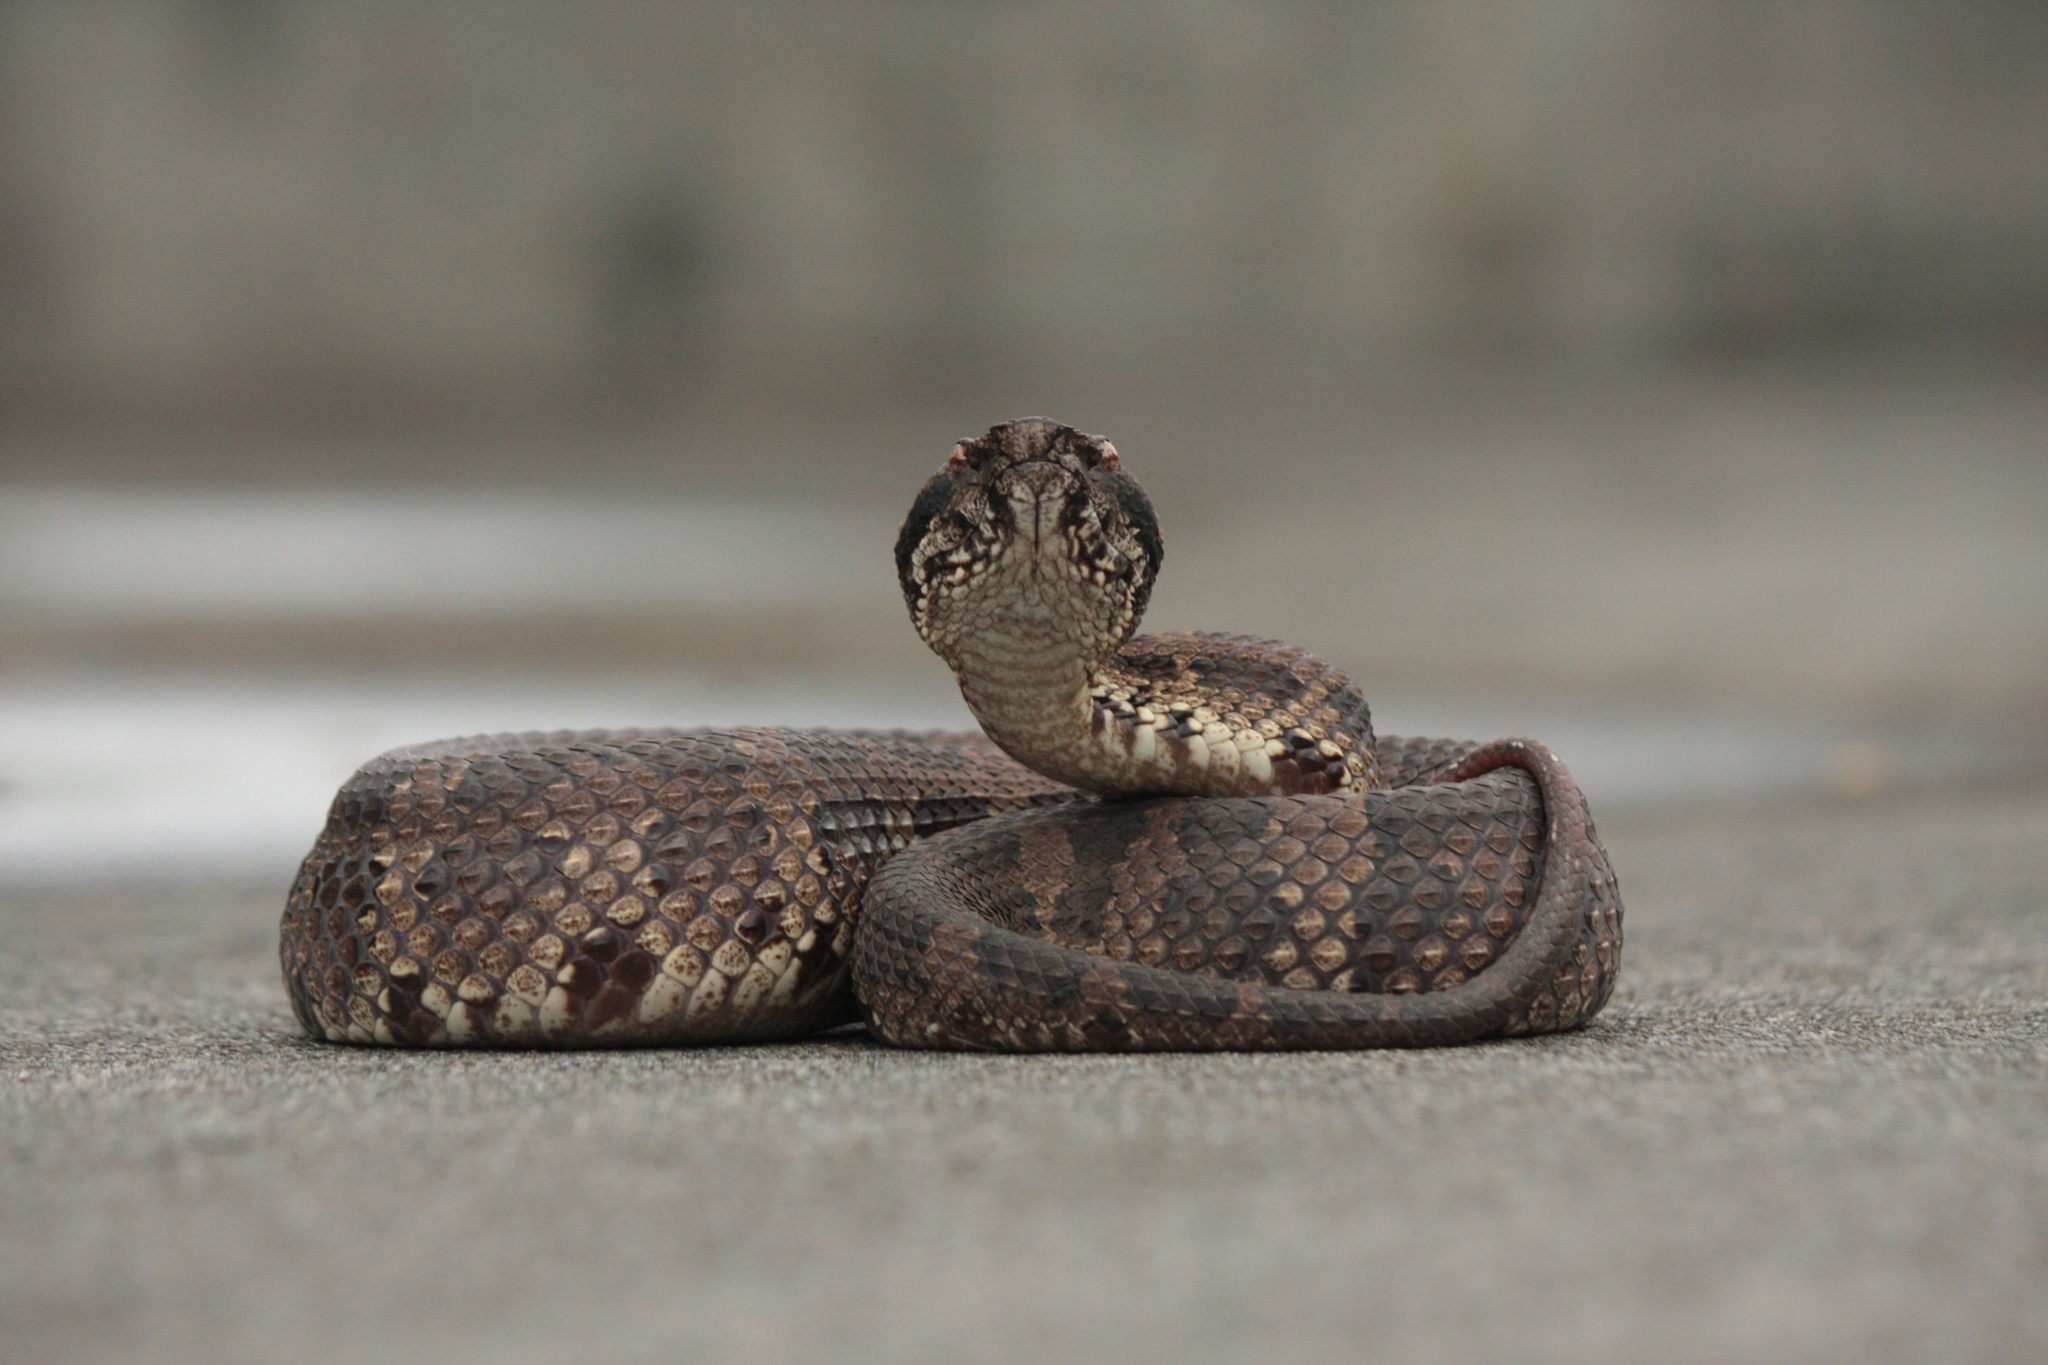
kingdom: Animalia
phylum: Chordata
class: Squamata
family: Viperidae
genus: Ovophis
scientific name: Ovophis okinavensis
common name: Okinawa pitviper
